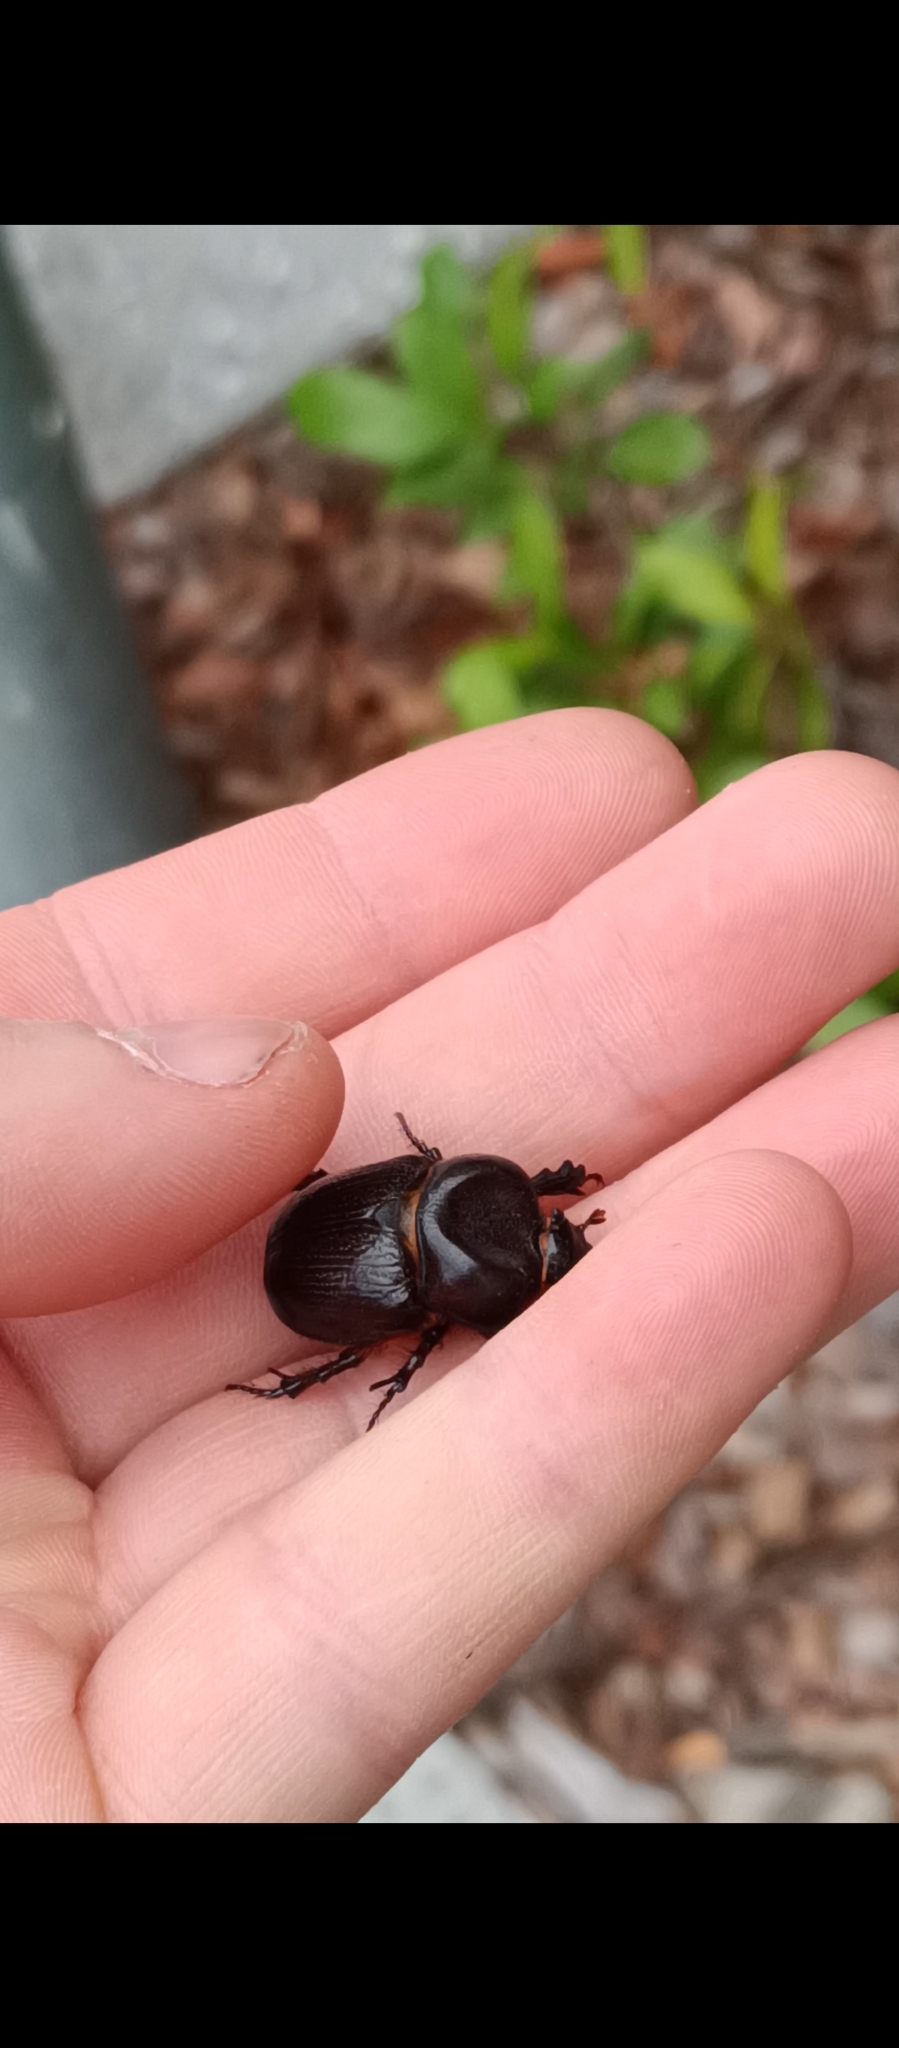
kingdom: Animalia
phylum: Arthropoda
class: Insecta
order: Coleoptera
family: Scarabaeidae
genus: Novapus
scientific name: Novapus crassus
